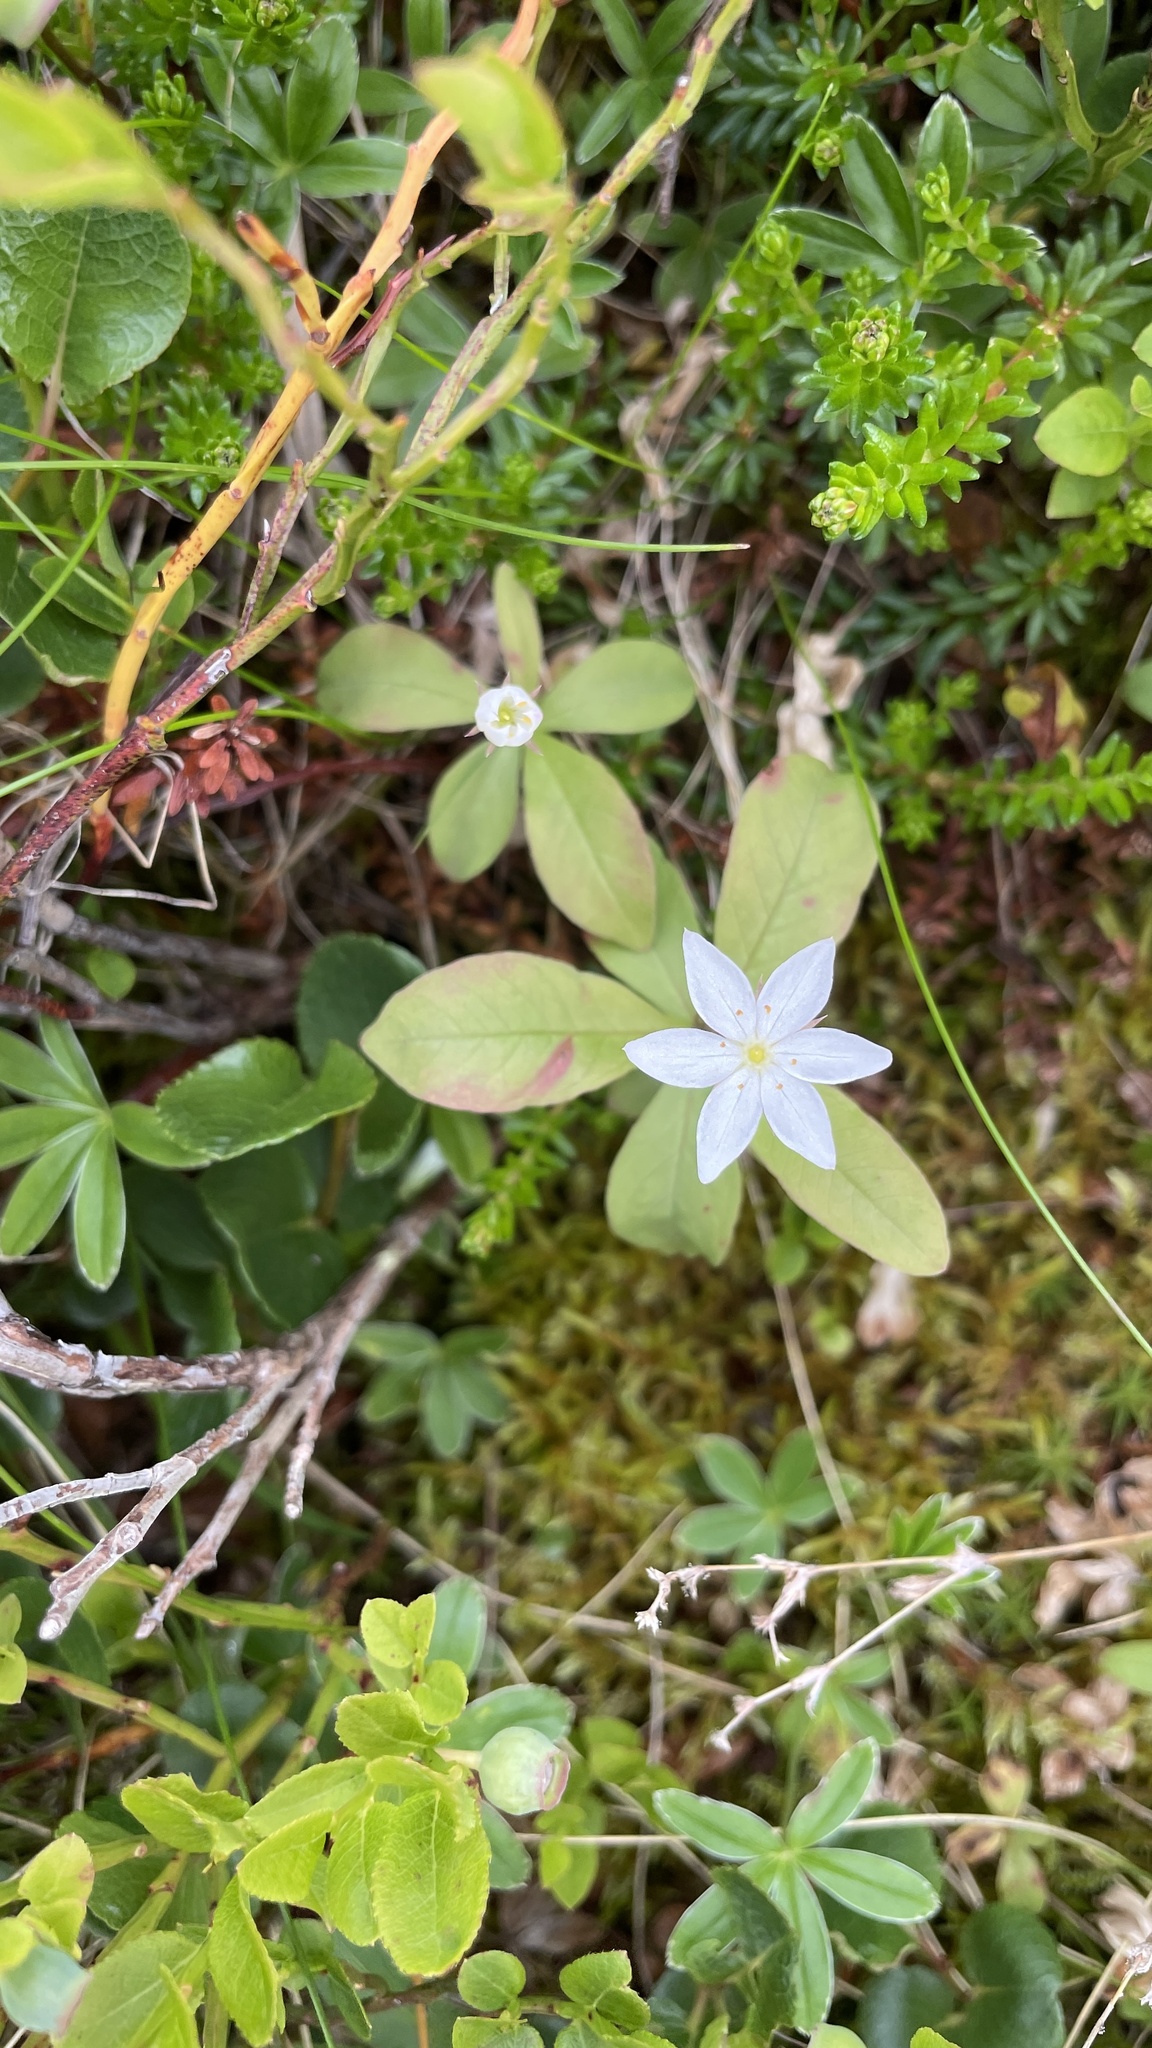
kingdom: Plantae
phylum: Tracheophyta
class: Magnoliopsida
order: Ericales
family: Primulaceae
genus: Lysimachia
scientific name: Lysimachia europaea
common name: Arctic starflower
